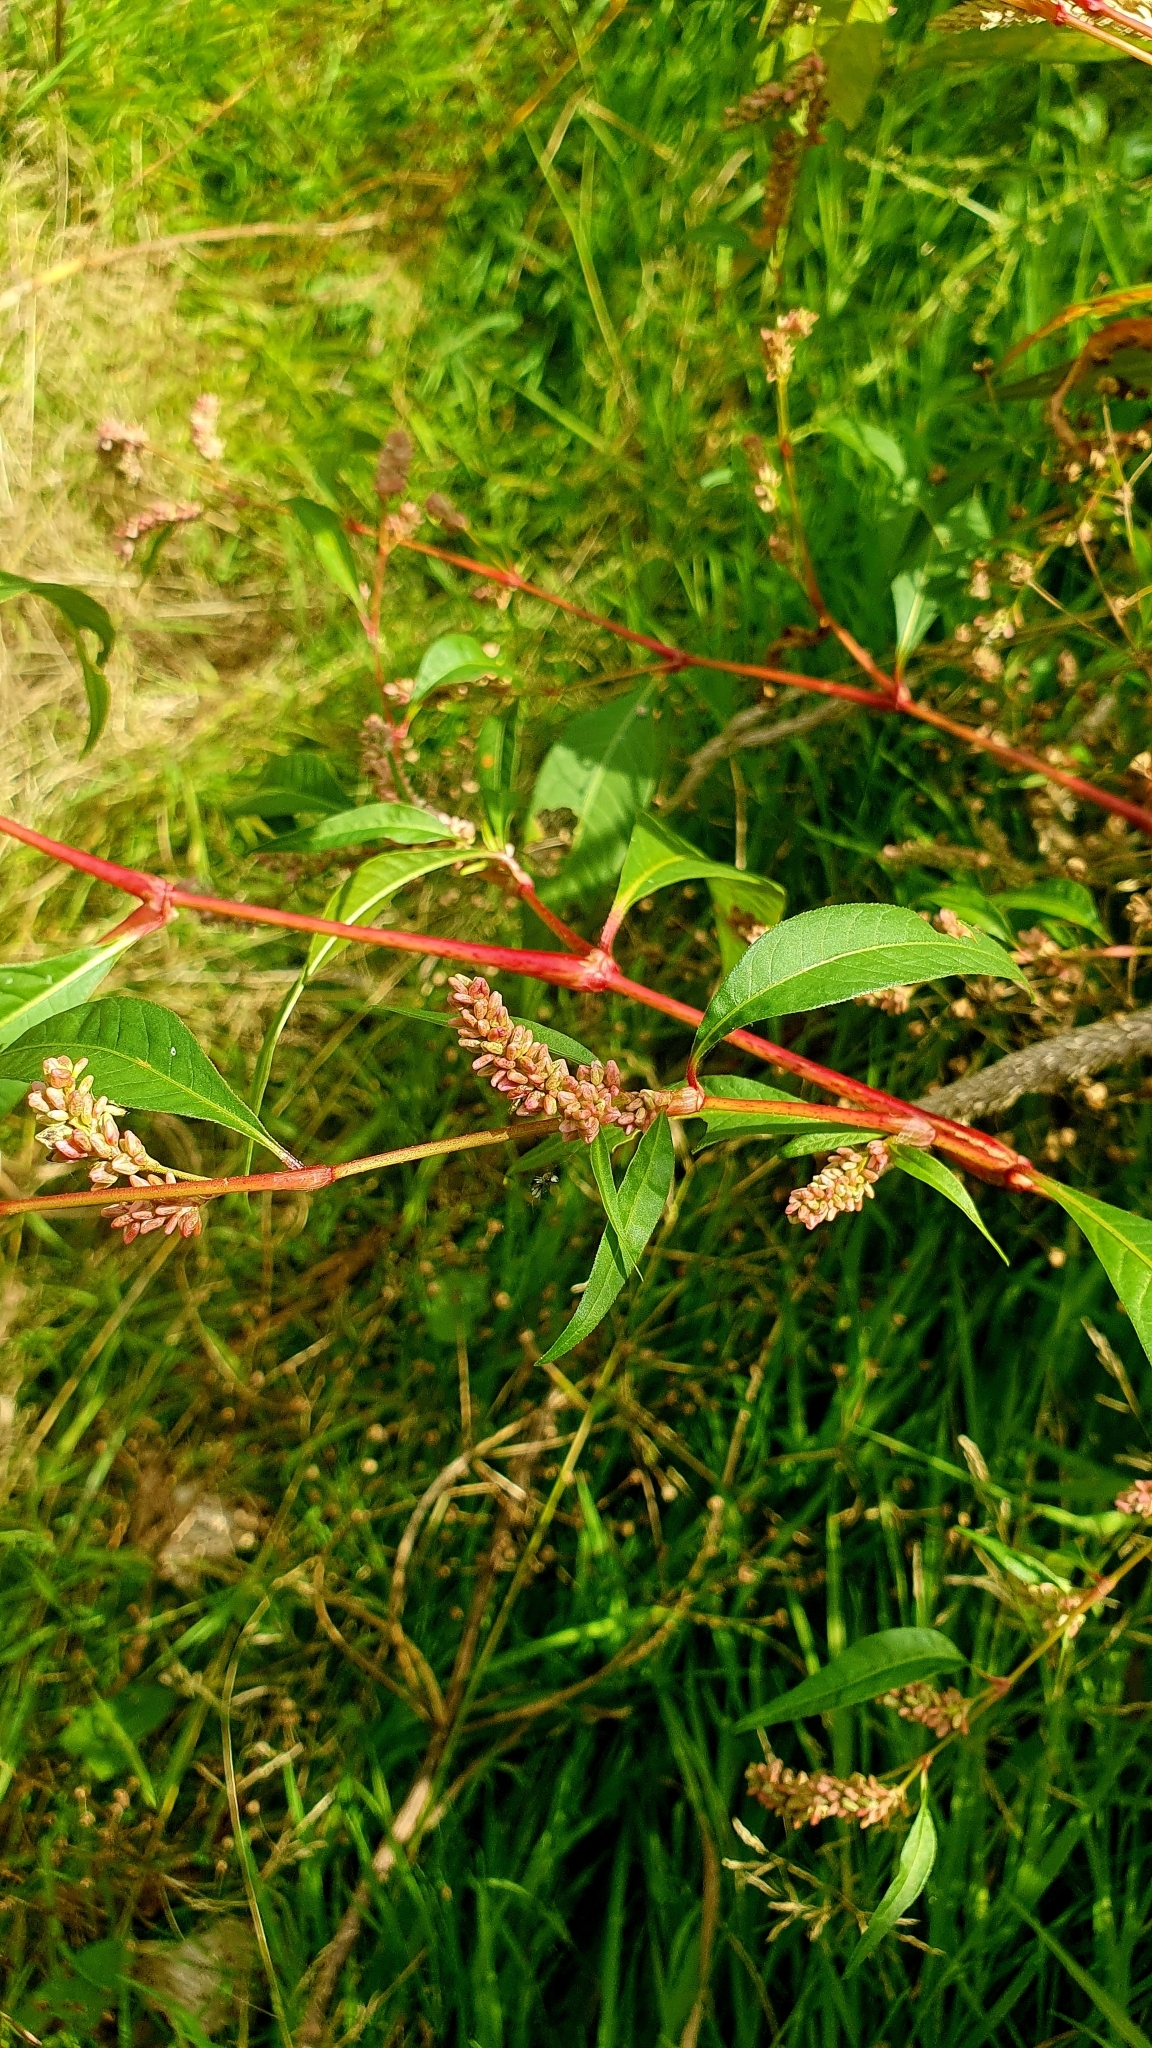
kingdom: Plantae
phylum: Tracheophyta
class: Magnoliopsida
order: Caryophyllales
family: Polygonaceae
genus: Persicaria
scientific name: Persicaria lapathifolia
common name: Curlytop knotweed
